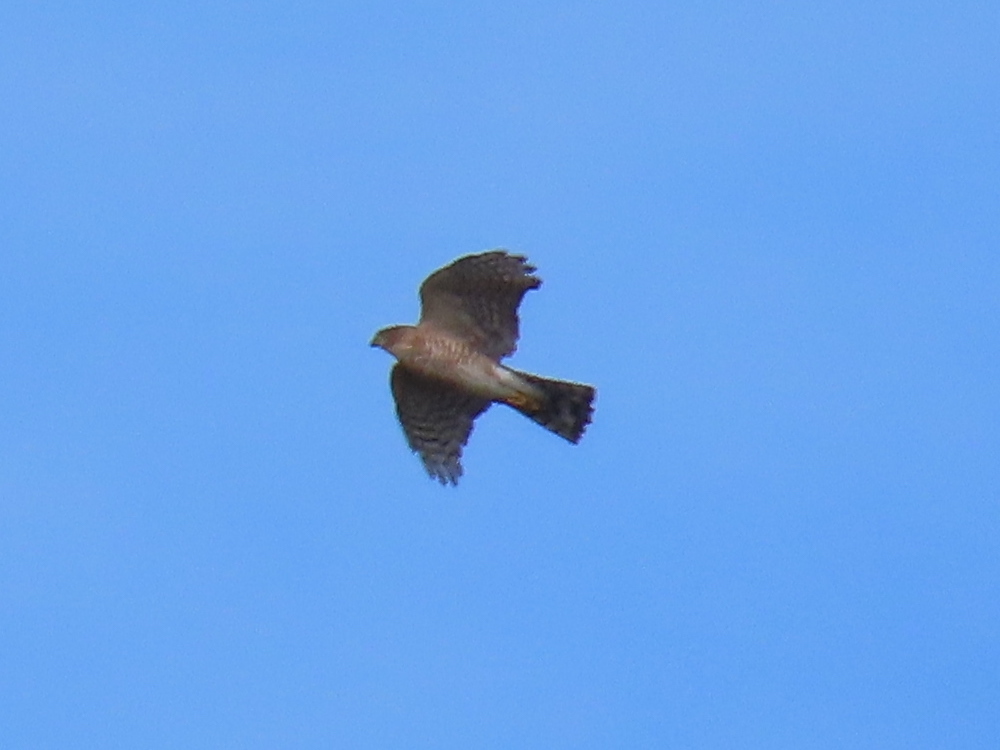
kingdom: Animalia
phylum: Chordata
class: Aves
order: Accipitriformes
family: Accipitridae
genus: Accipiter
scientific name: Accipiter striatus
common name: Sharp-shinned hawk
